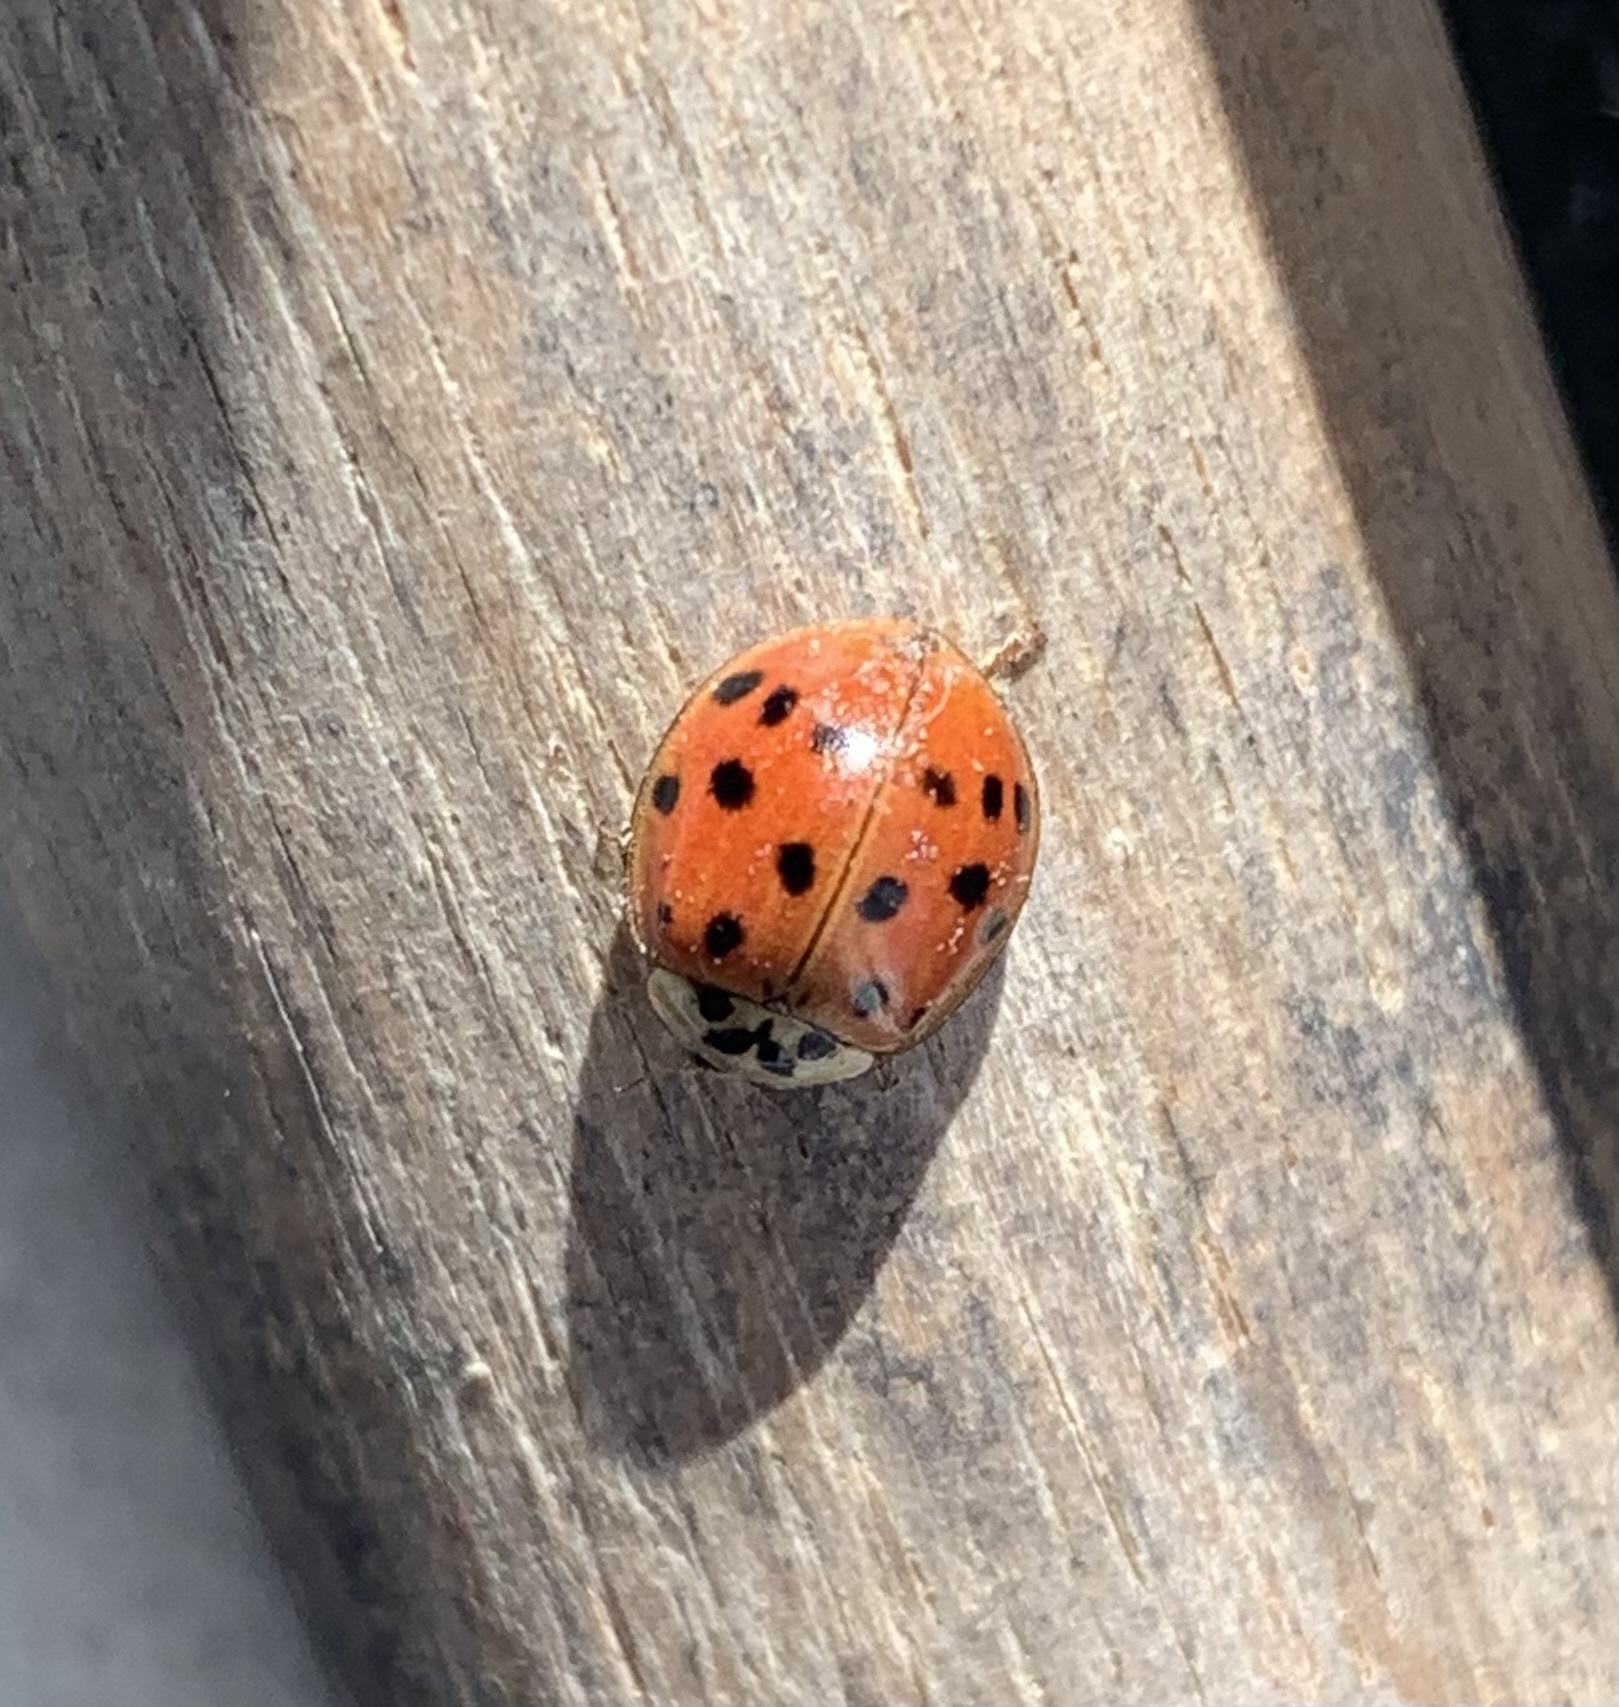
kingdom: Animalia
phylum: Arthropoda
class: Insecta
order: Coleoptera
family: Coccinellidae
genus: Harmonia
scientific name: Harmonia axyridis
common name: Harlequin ladybird
